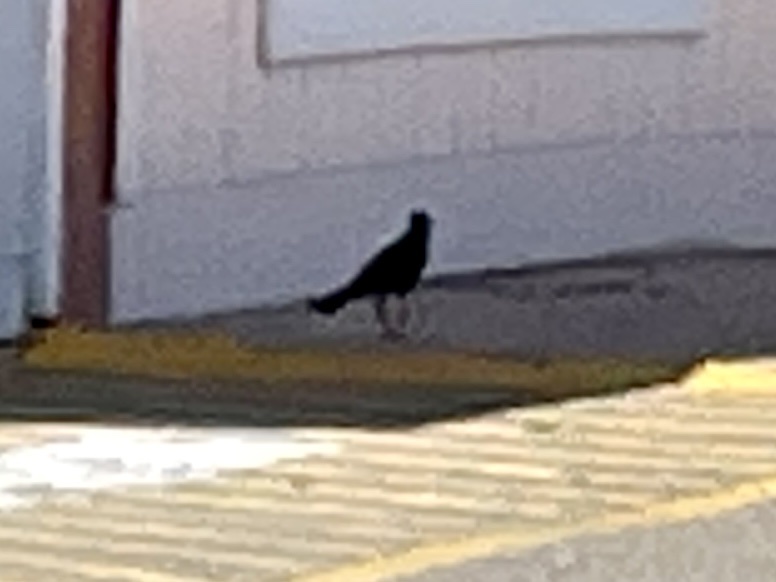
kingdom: Animalia
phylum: Chordata
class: Aves
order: Passeriformes
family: Icteridae
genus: Quiscalus
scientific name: Quiscalus mexicanus
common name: Great-tailed grackle
